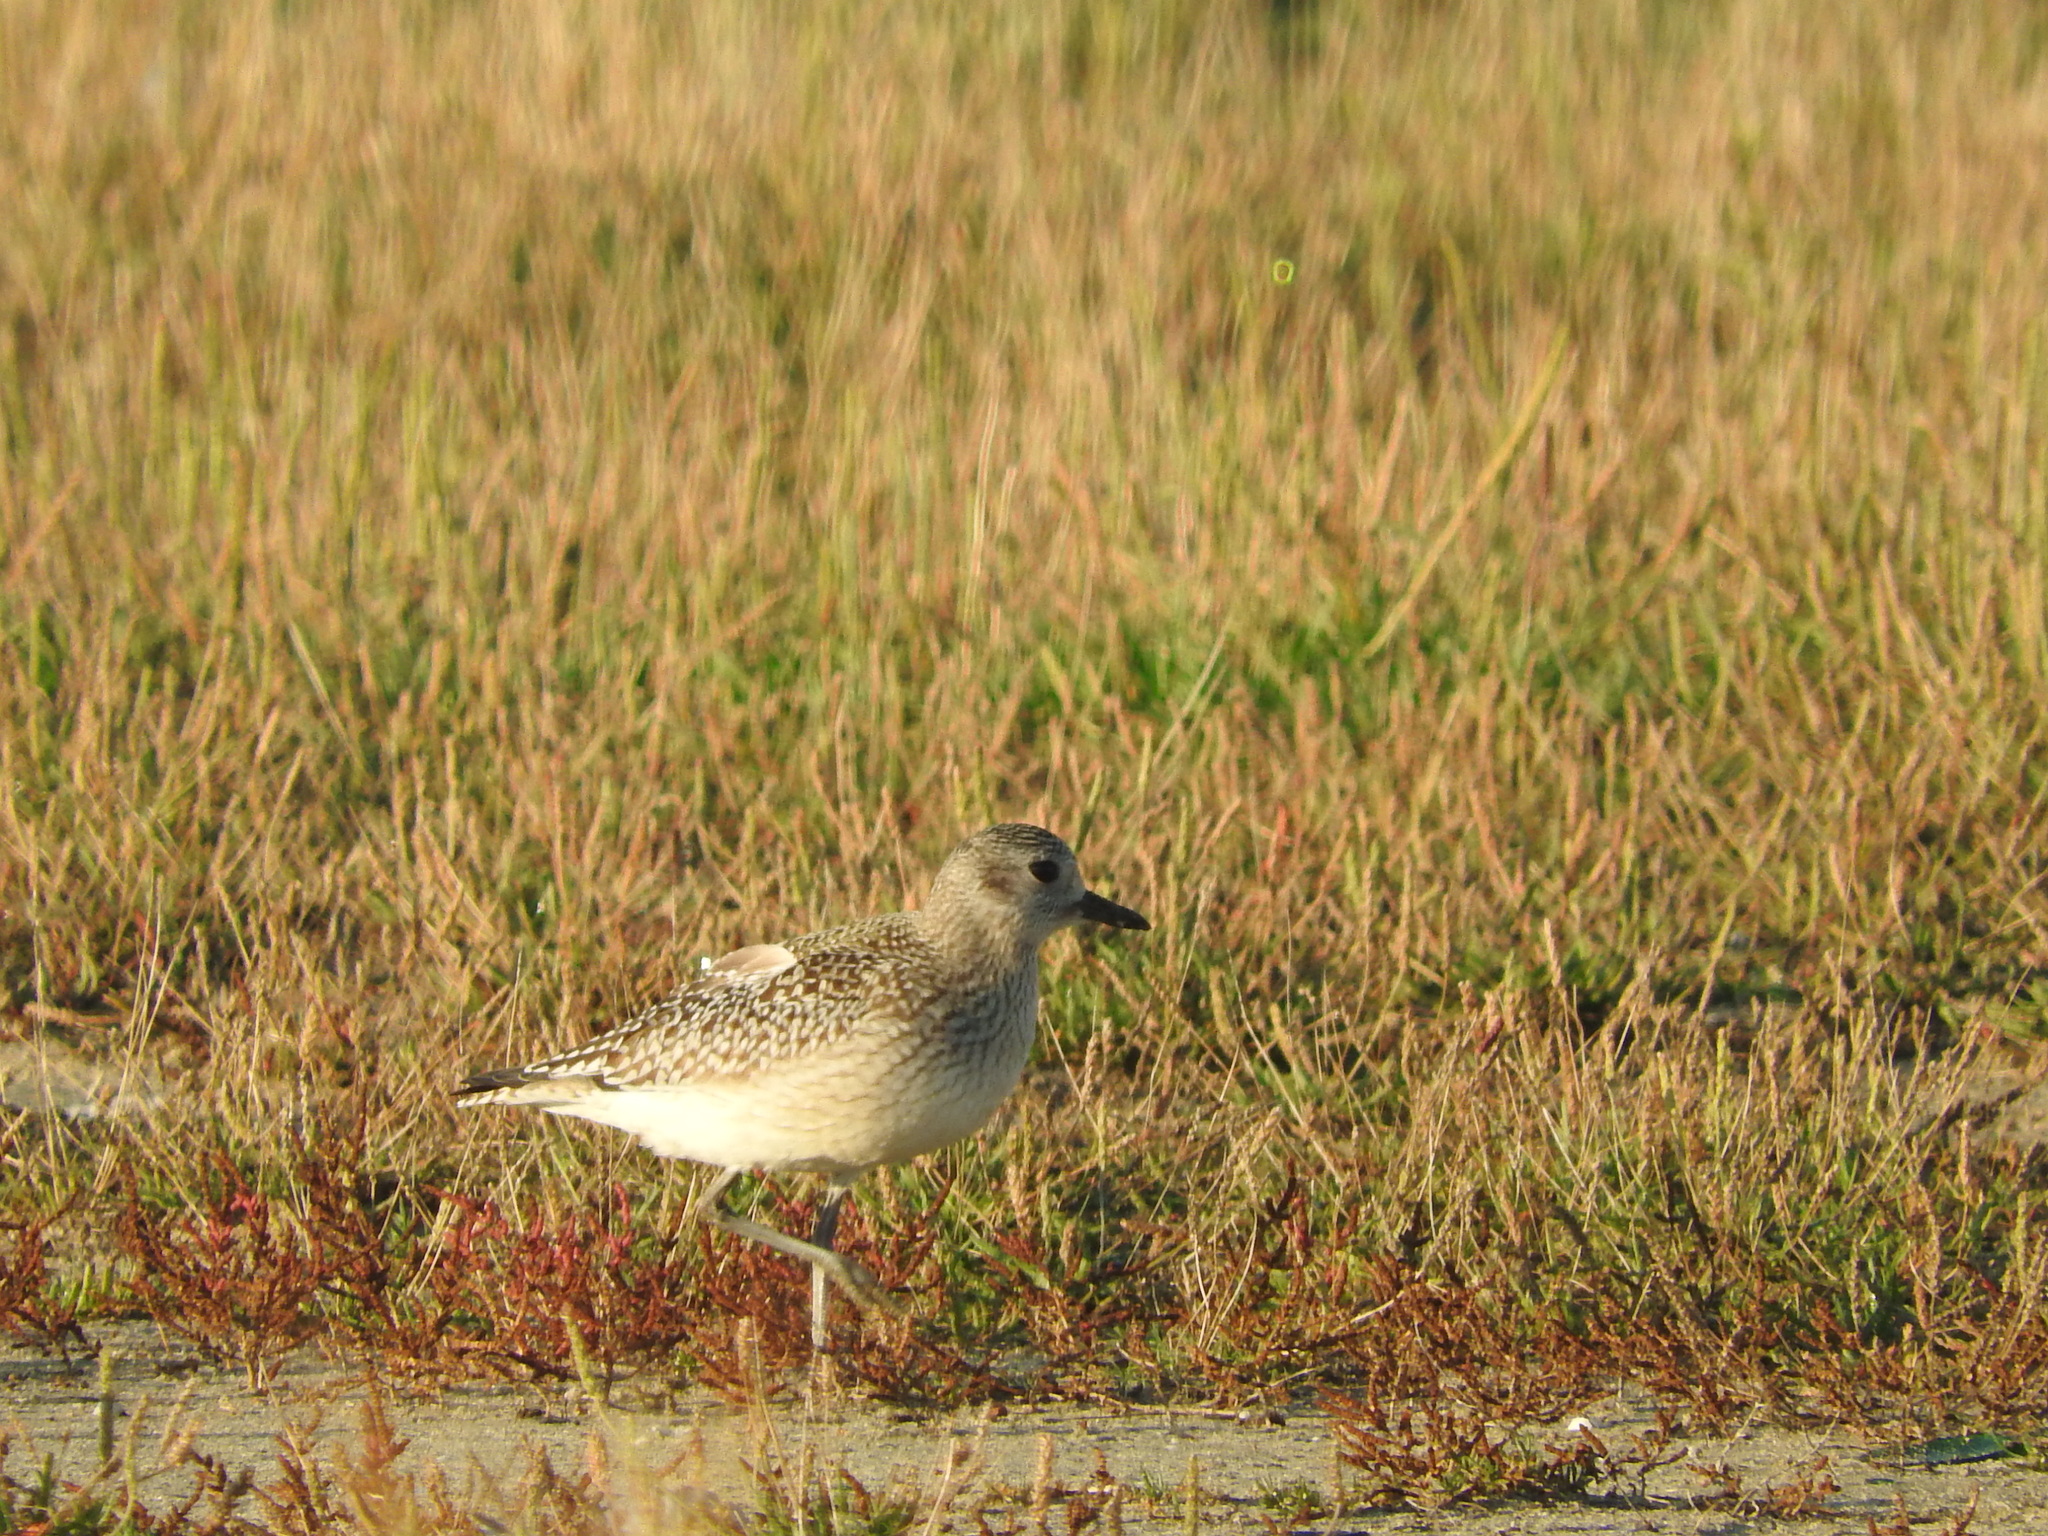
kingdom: Animalia
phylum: Chordata
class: Aves
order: Charadriiformes
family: Charadriidae
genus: Pluvialis
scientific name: Pluvialis squatarola
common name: Grey plover
